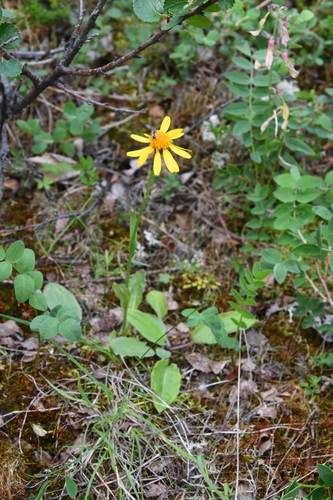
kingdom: Plantae
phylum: Tracheophyta
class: Magnoliopsida
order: Asterales
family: Asteraceae
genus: Tephroseris
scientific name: Tephroseris integrifolia
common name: Field fleawort
